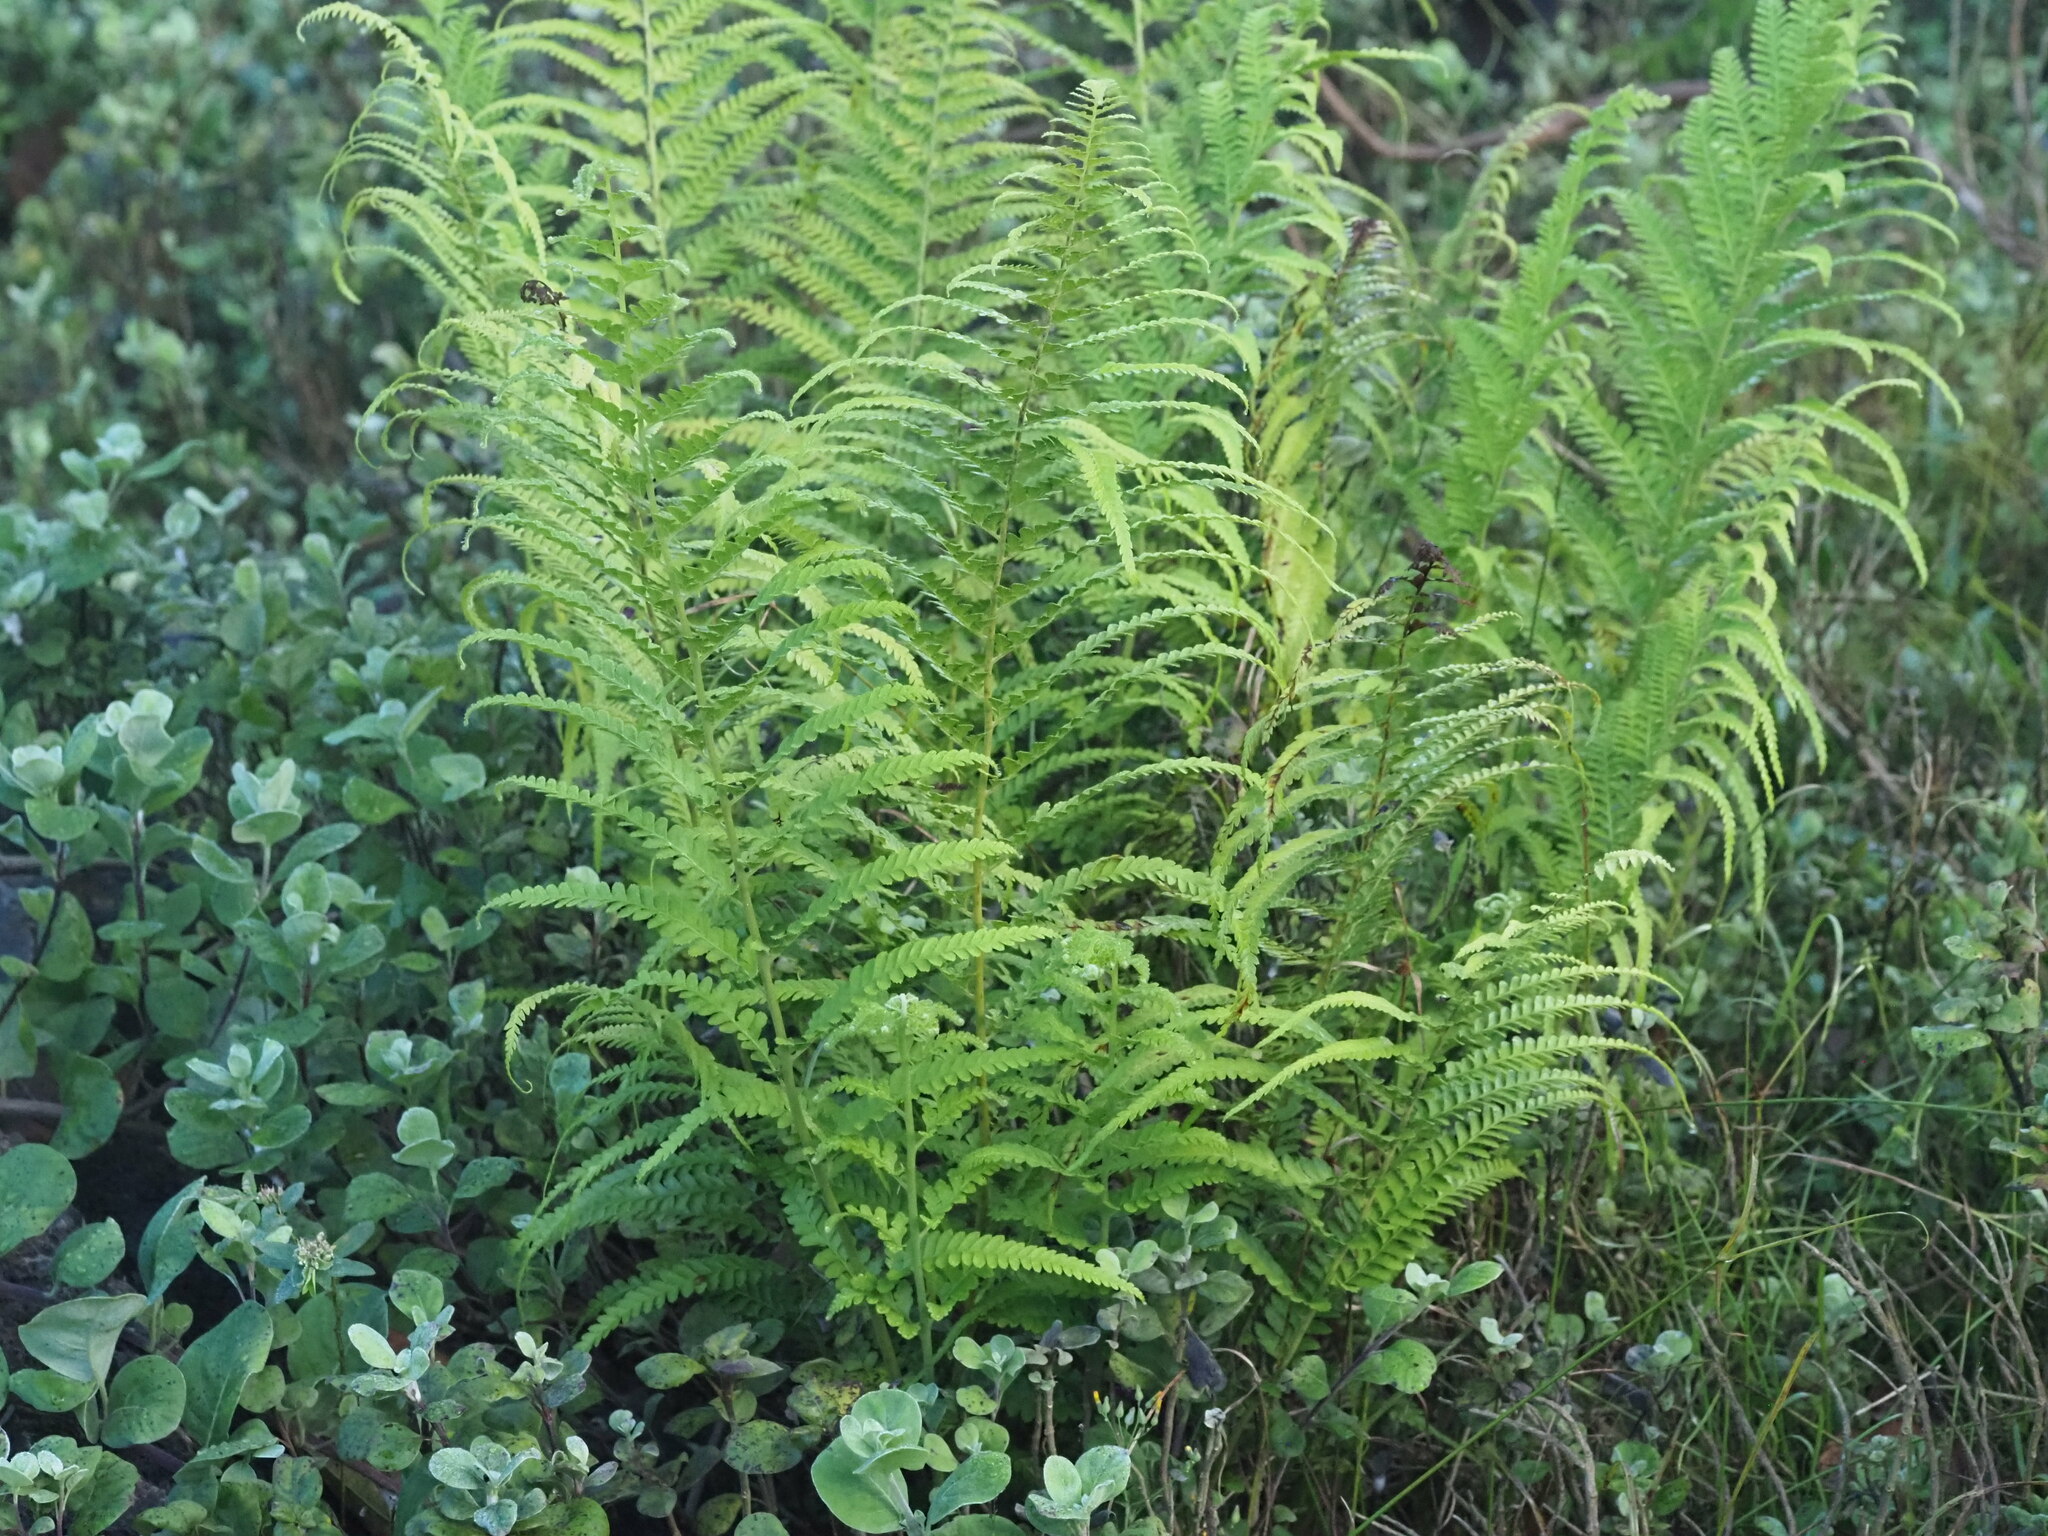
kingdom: Plantae
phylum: Tracheophyta
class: Polypodiopsida
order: Polypodiales
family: Dennstaedtiaceae
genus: Microlepia
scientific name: Microlepia setosa
